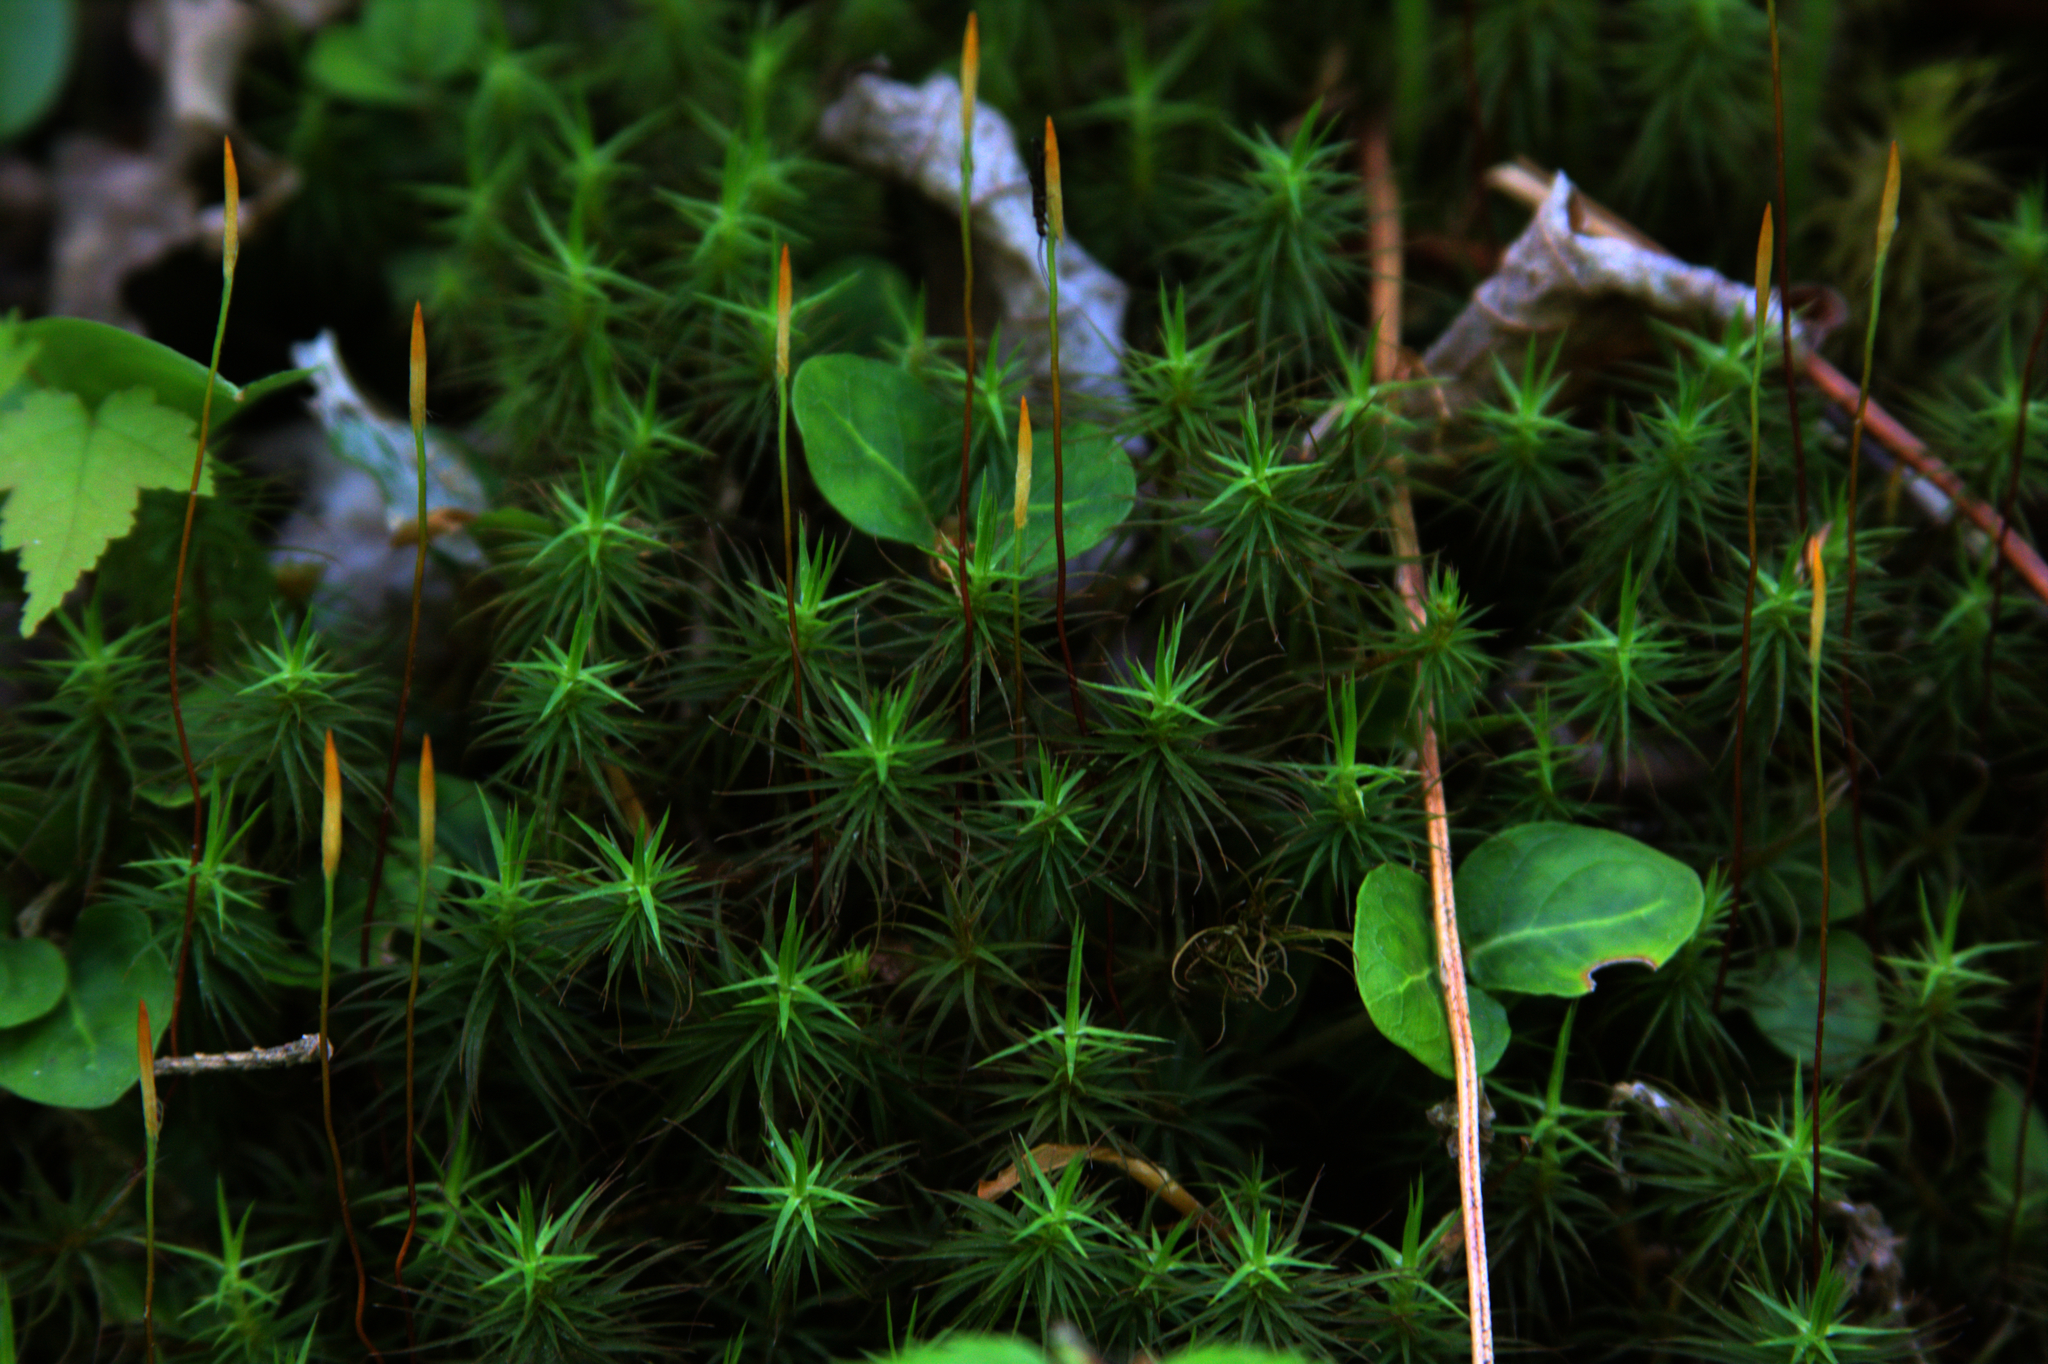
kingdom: Plantae
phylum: Tracheophyta
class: Magnoliopsida
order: Gentianales
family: Rubiaceae
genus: Mitchella
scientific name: Mitchella repens
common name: Partridge-berry
